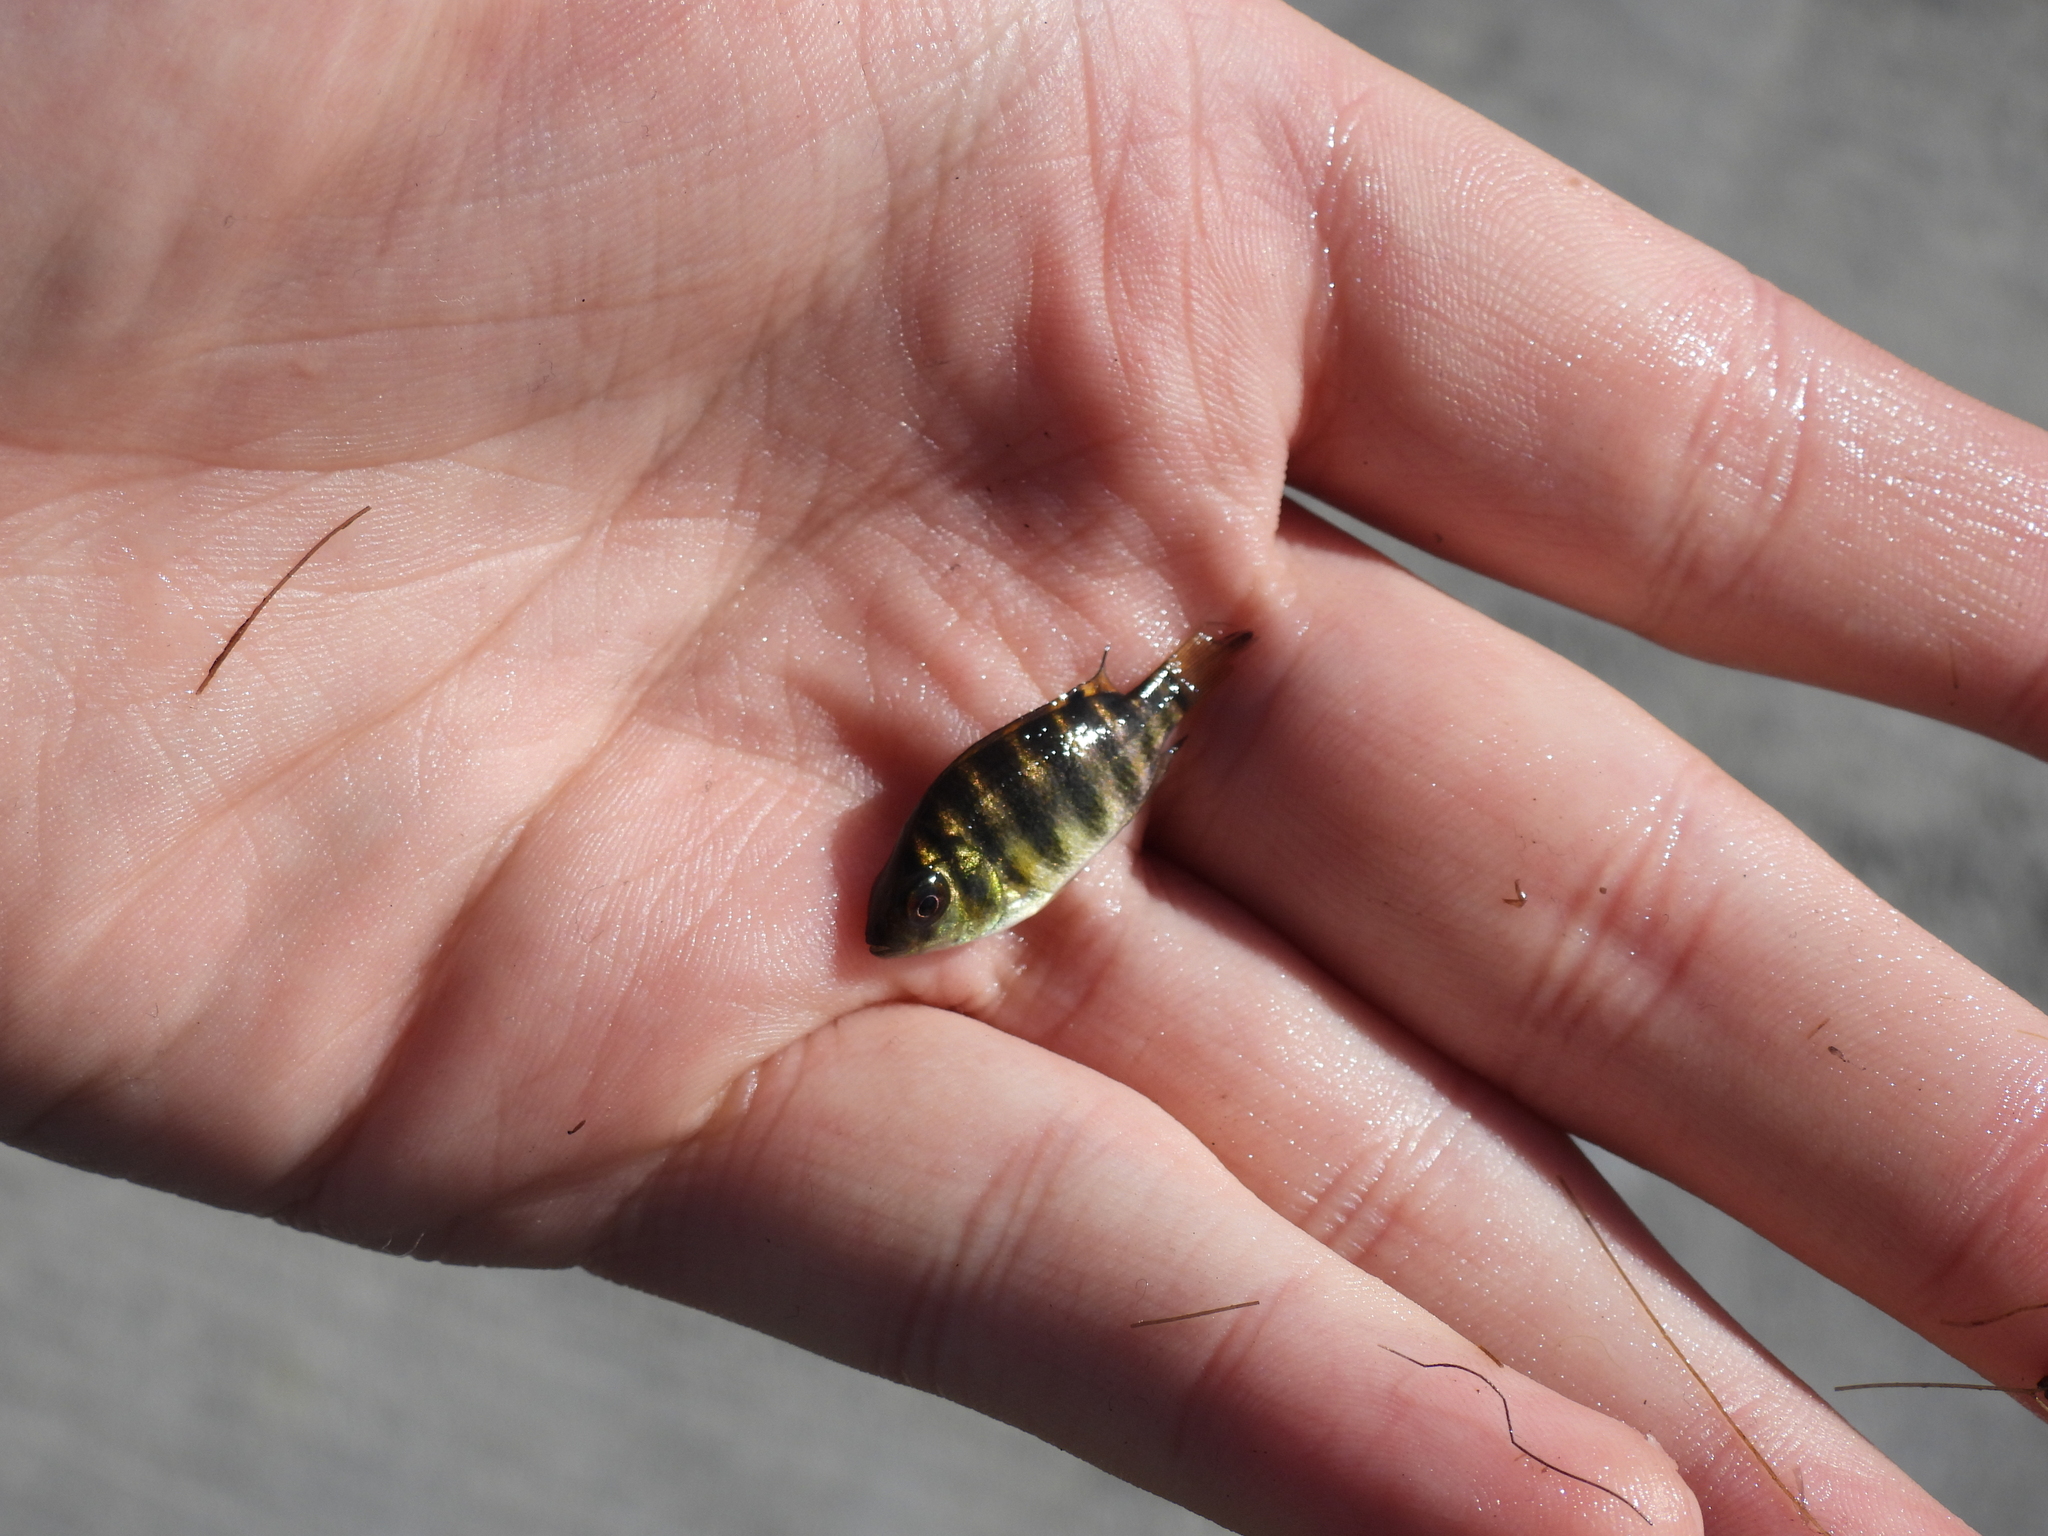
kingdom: Animalia
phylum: Chordata
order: Perciformes
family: Cichlidae
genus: Pelmatolapia
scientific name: Pelmatolapia mariae
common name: Spotted tilapia
